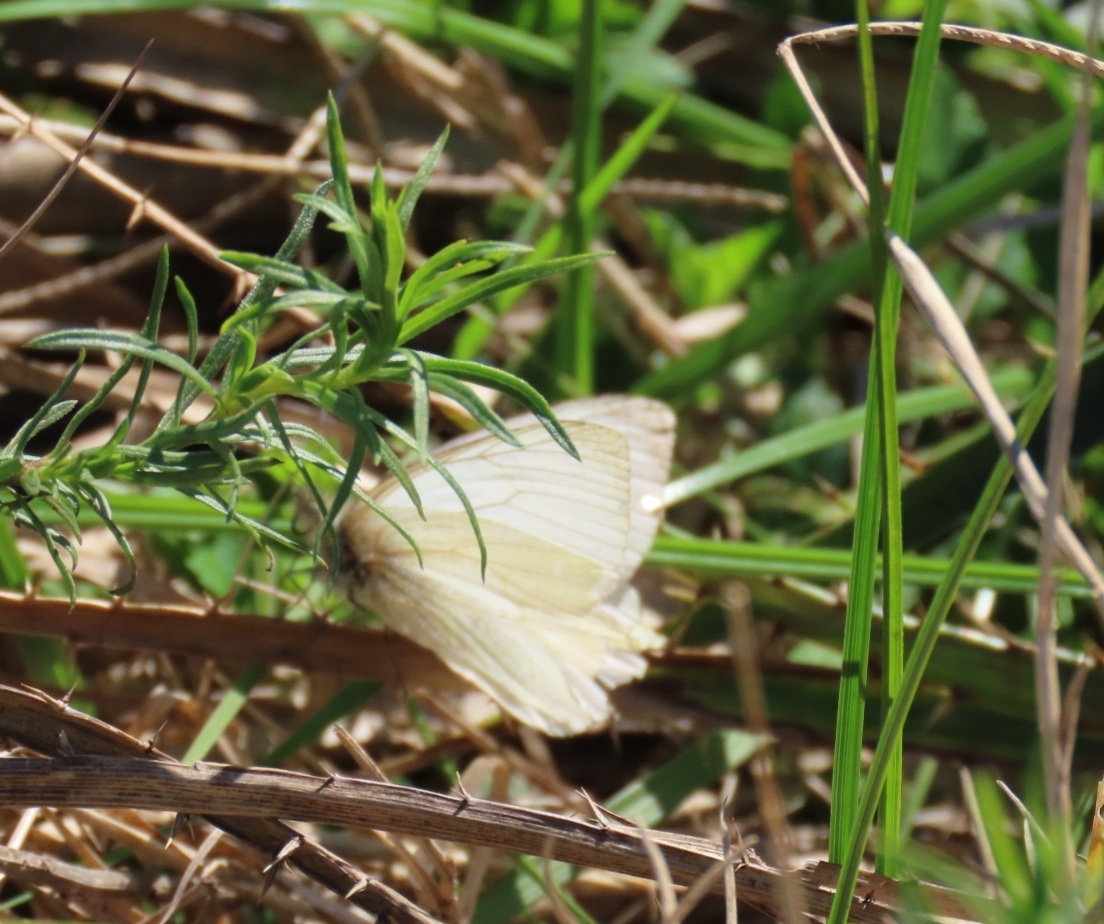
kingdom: Animalia
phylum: Arthropoda
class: Insecta
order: Lepidoptera
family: Pieridae
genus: Theochila
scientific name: Theochila maenacte
